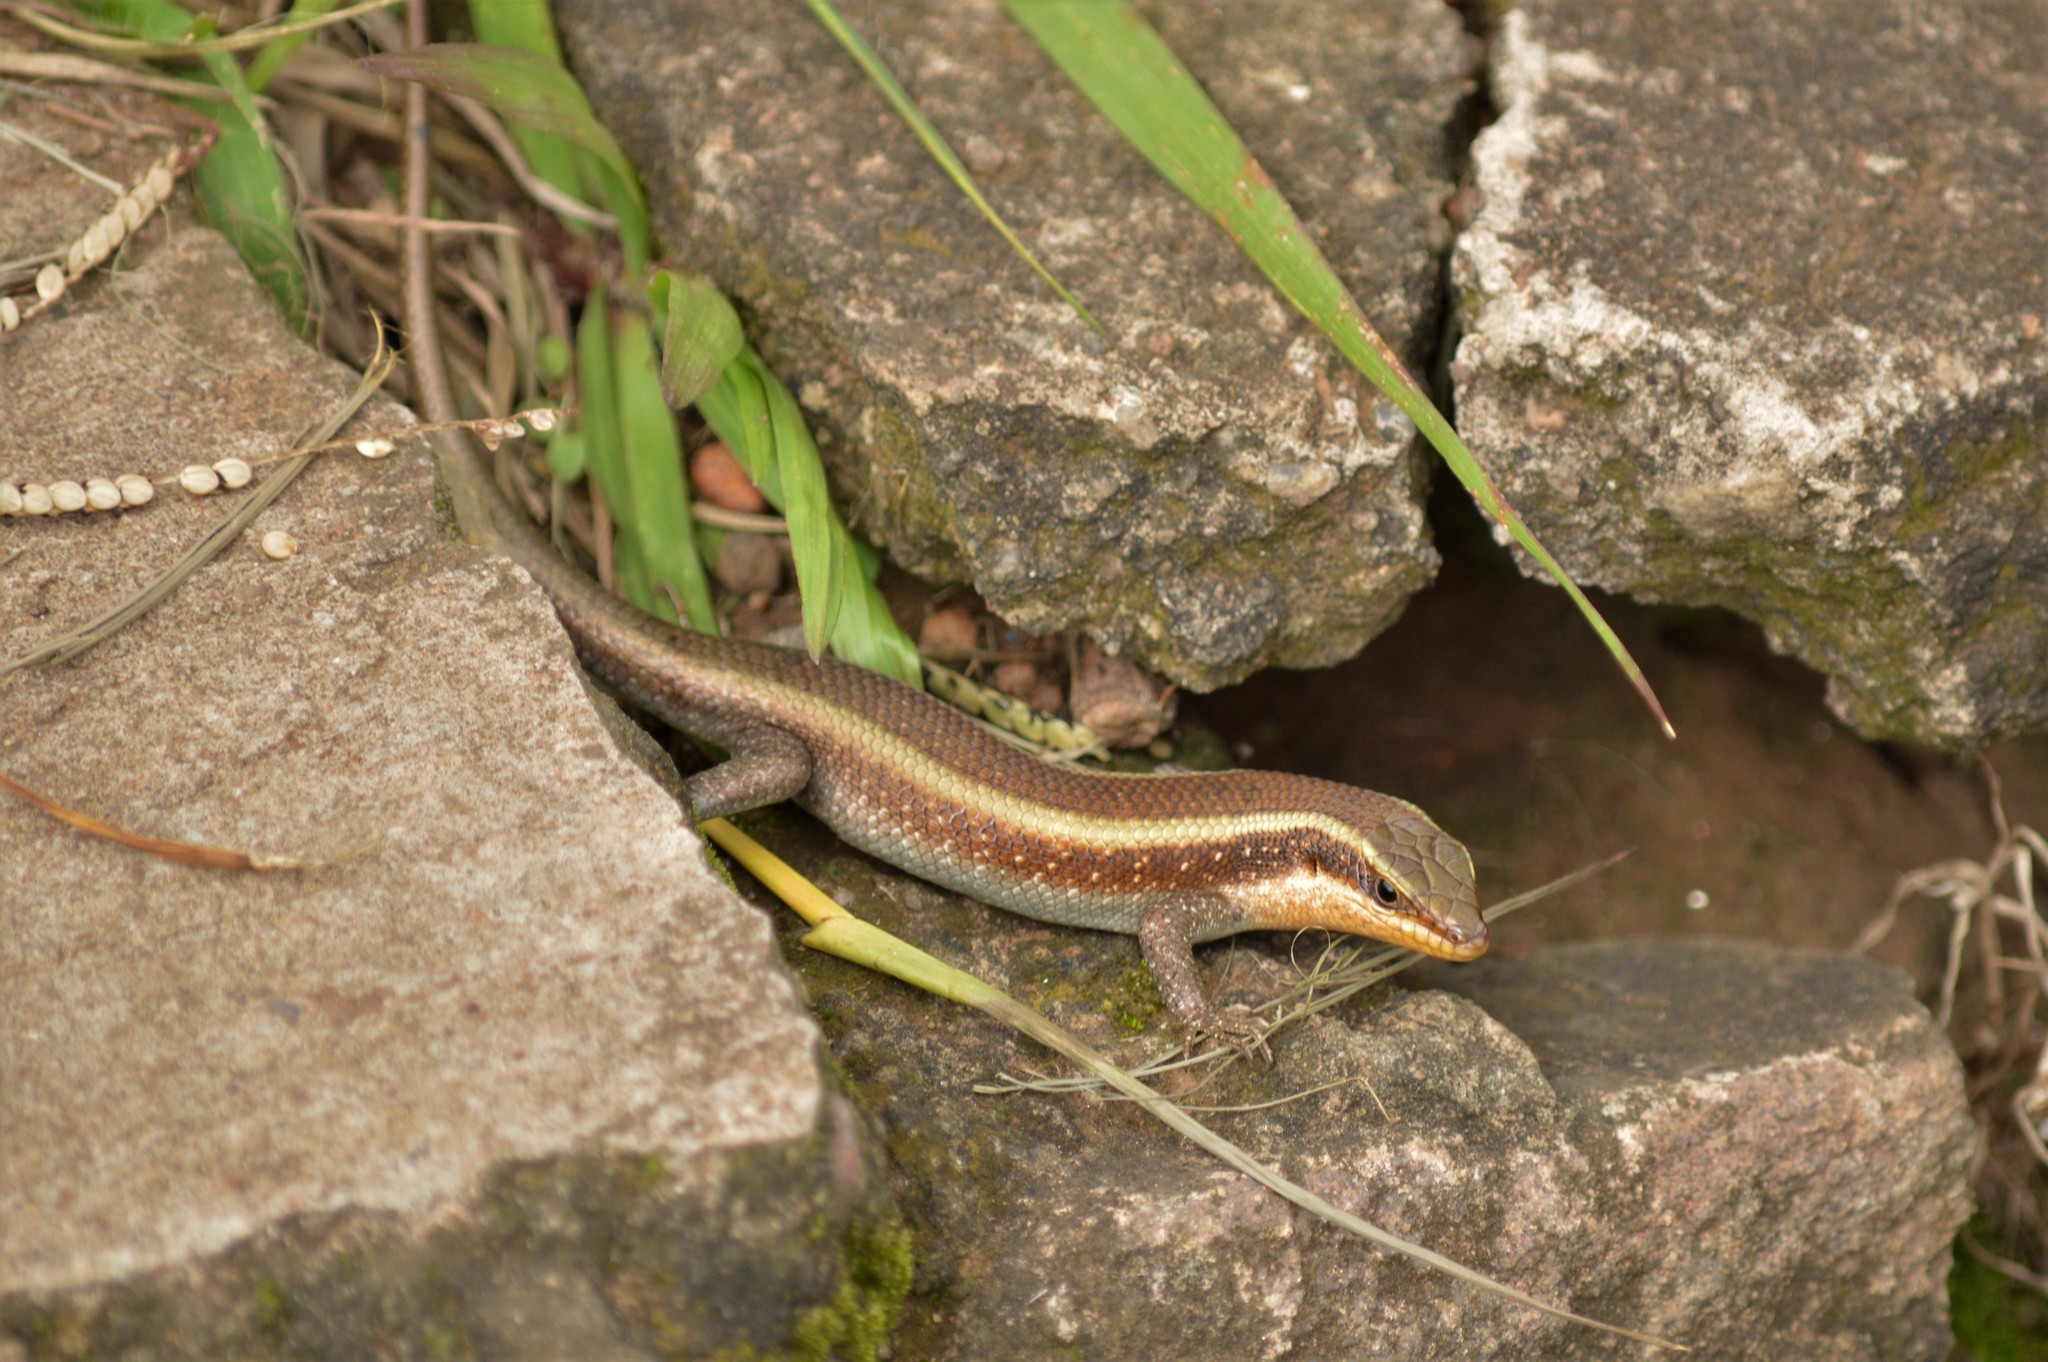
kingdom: Animalia
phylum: Chordata
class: Squamata
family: Scincidae
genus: Trachylepis
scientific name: Trachylepis striata
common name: African striped mabuya
